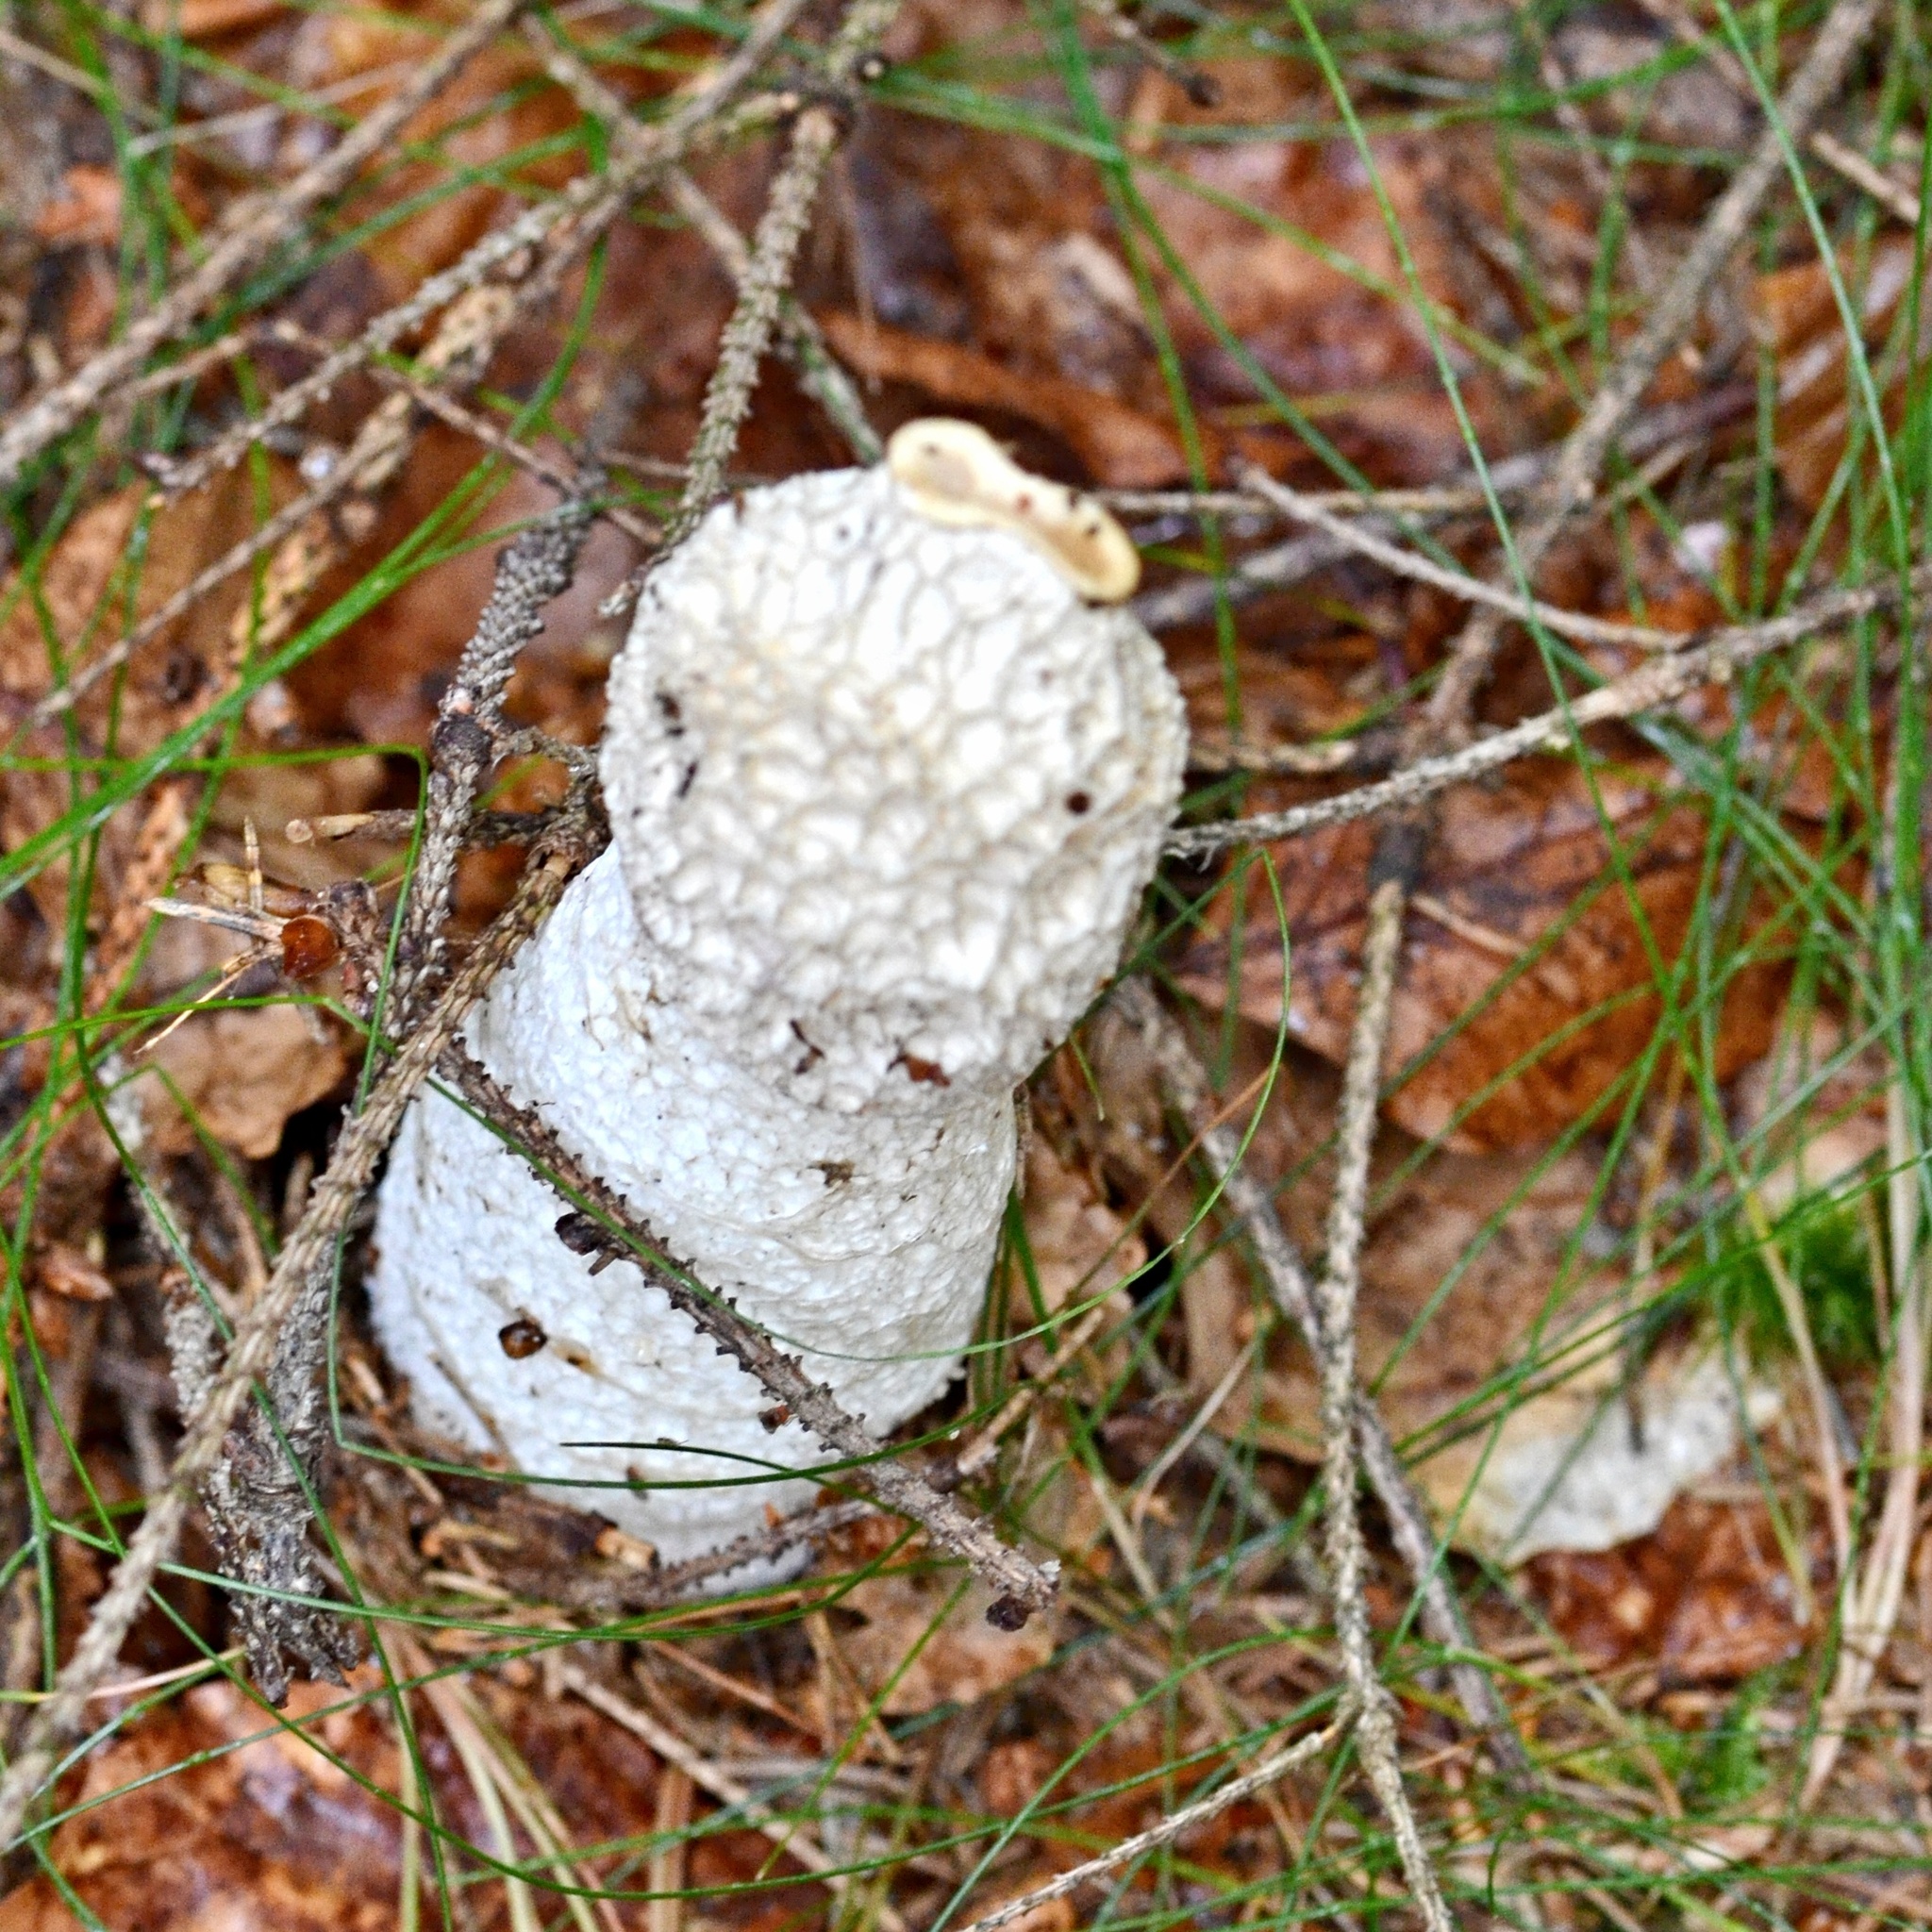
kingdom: Fungi
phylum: Basidiomycota
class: Agaricomycetes
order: Phallales
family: Phallaceae
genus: Phallus
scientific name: Phallus impudicus
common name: Common stinkhorn
